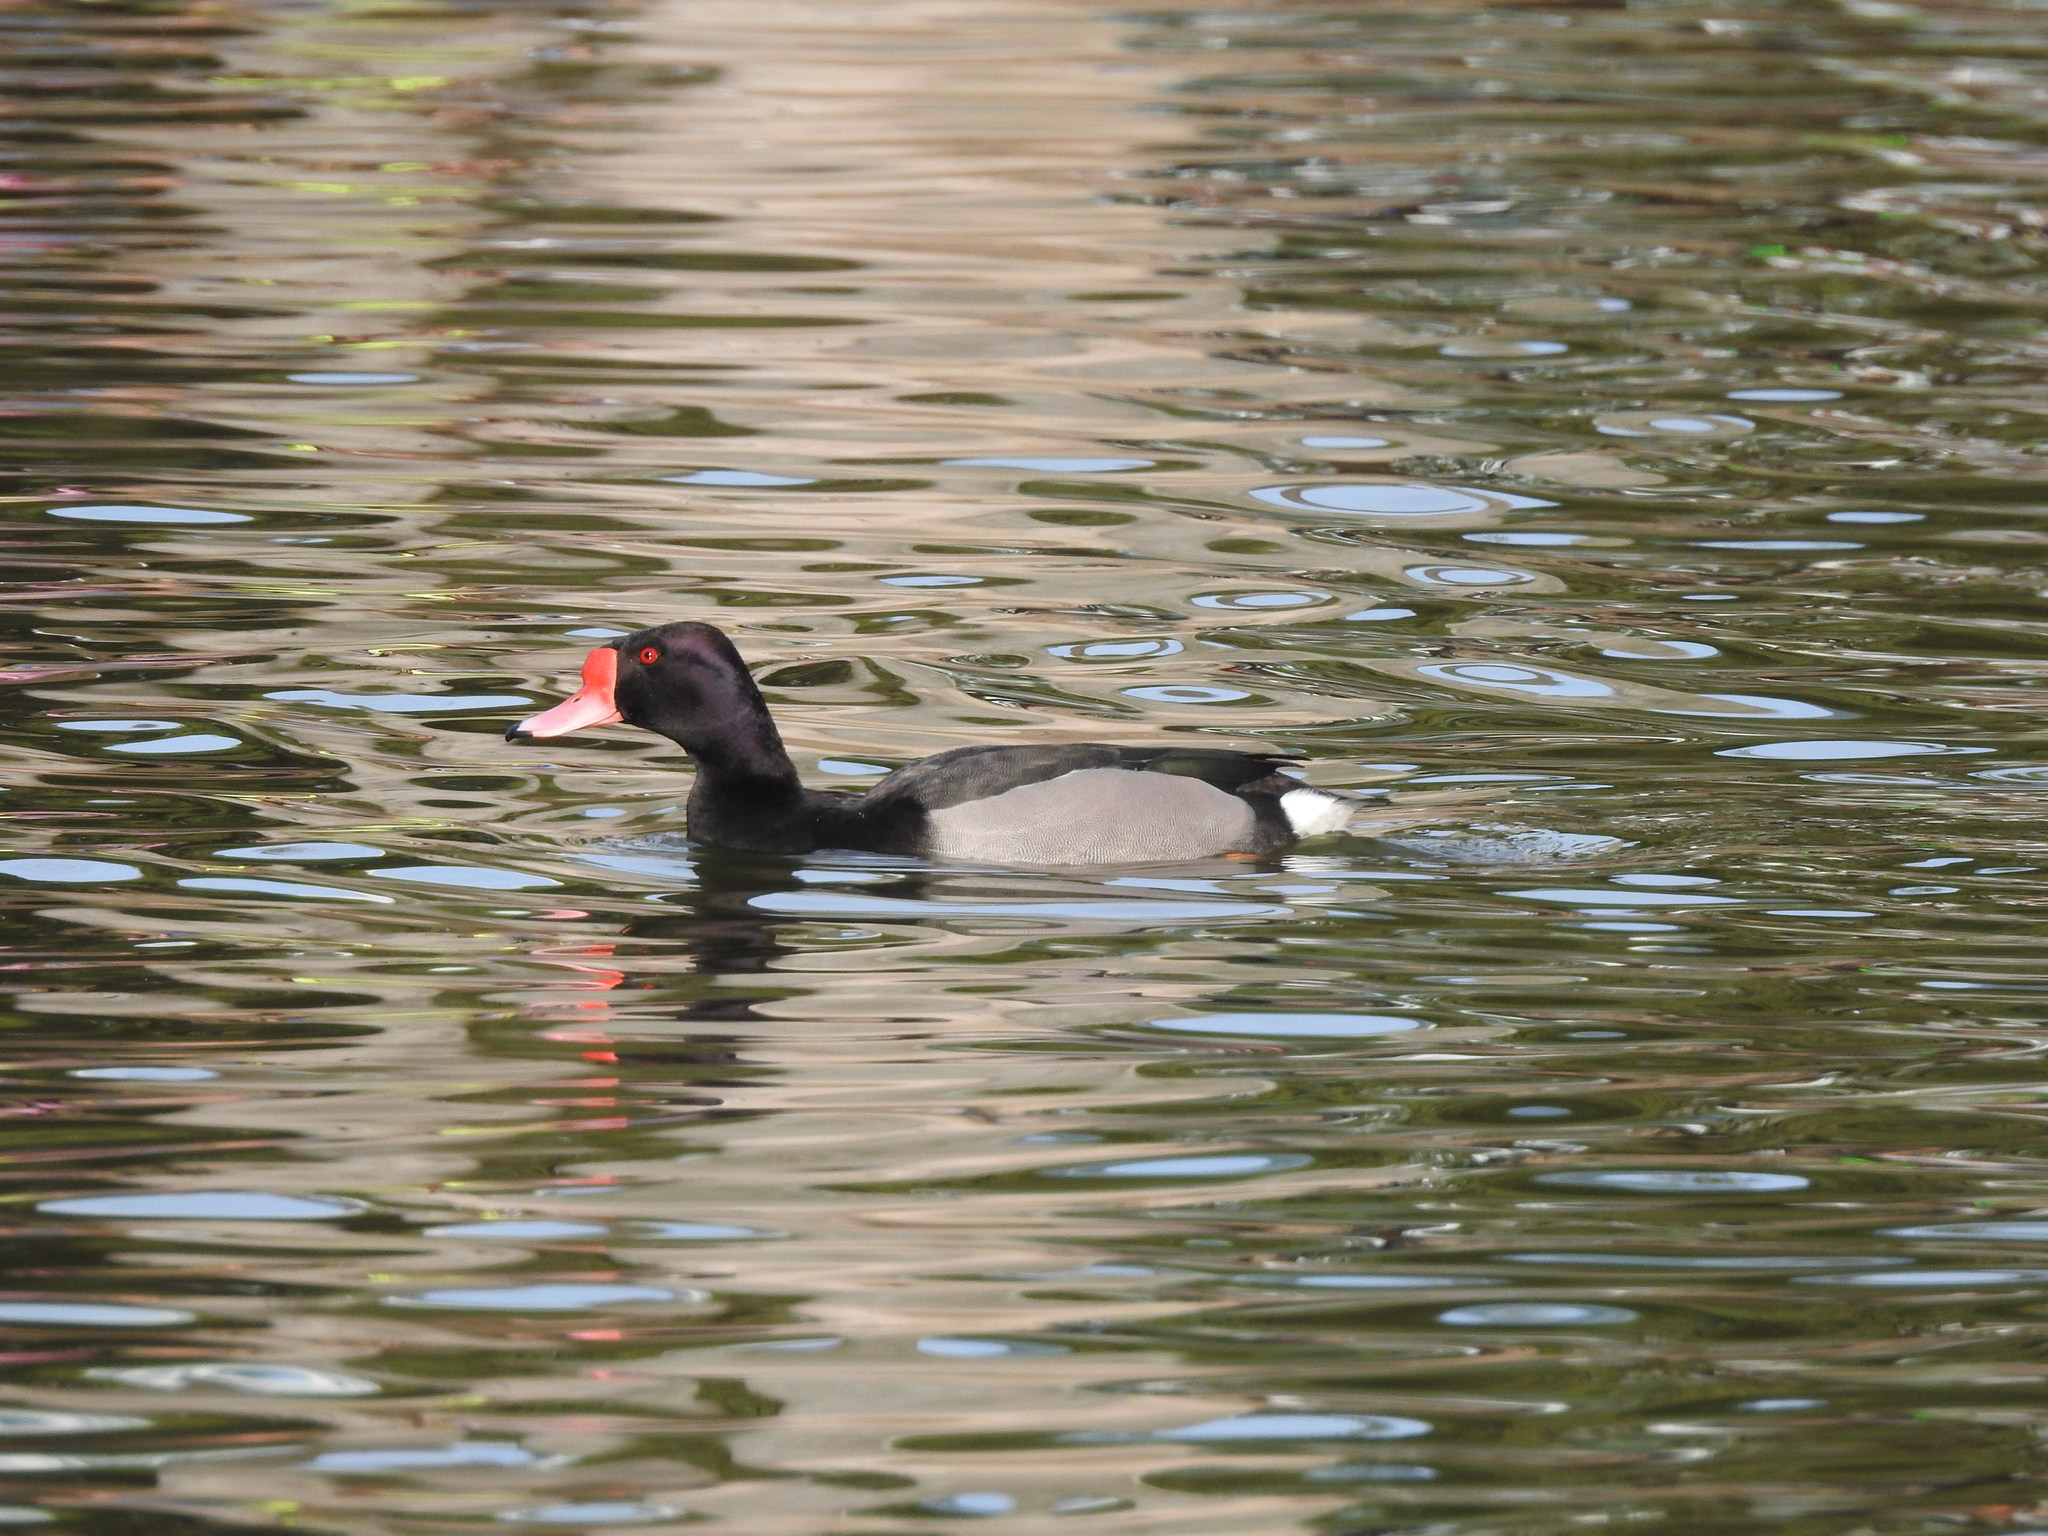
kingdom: Animalia
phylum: Chordata
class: Aves
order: Anseriformes
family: Anatidae
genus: Netta
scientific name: Netta peposaca
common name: Rosy-billed pochard
